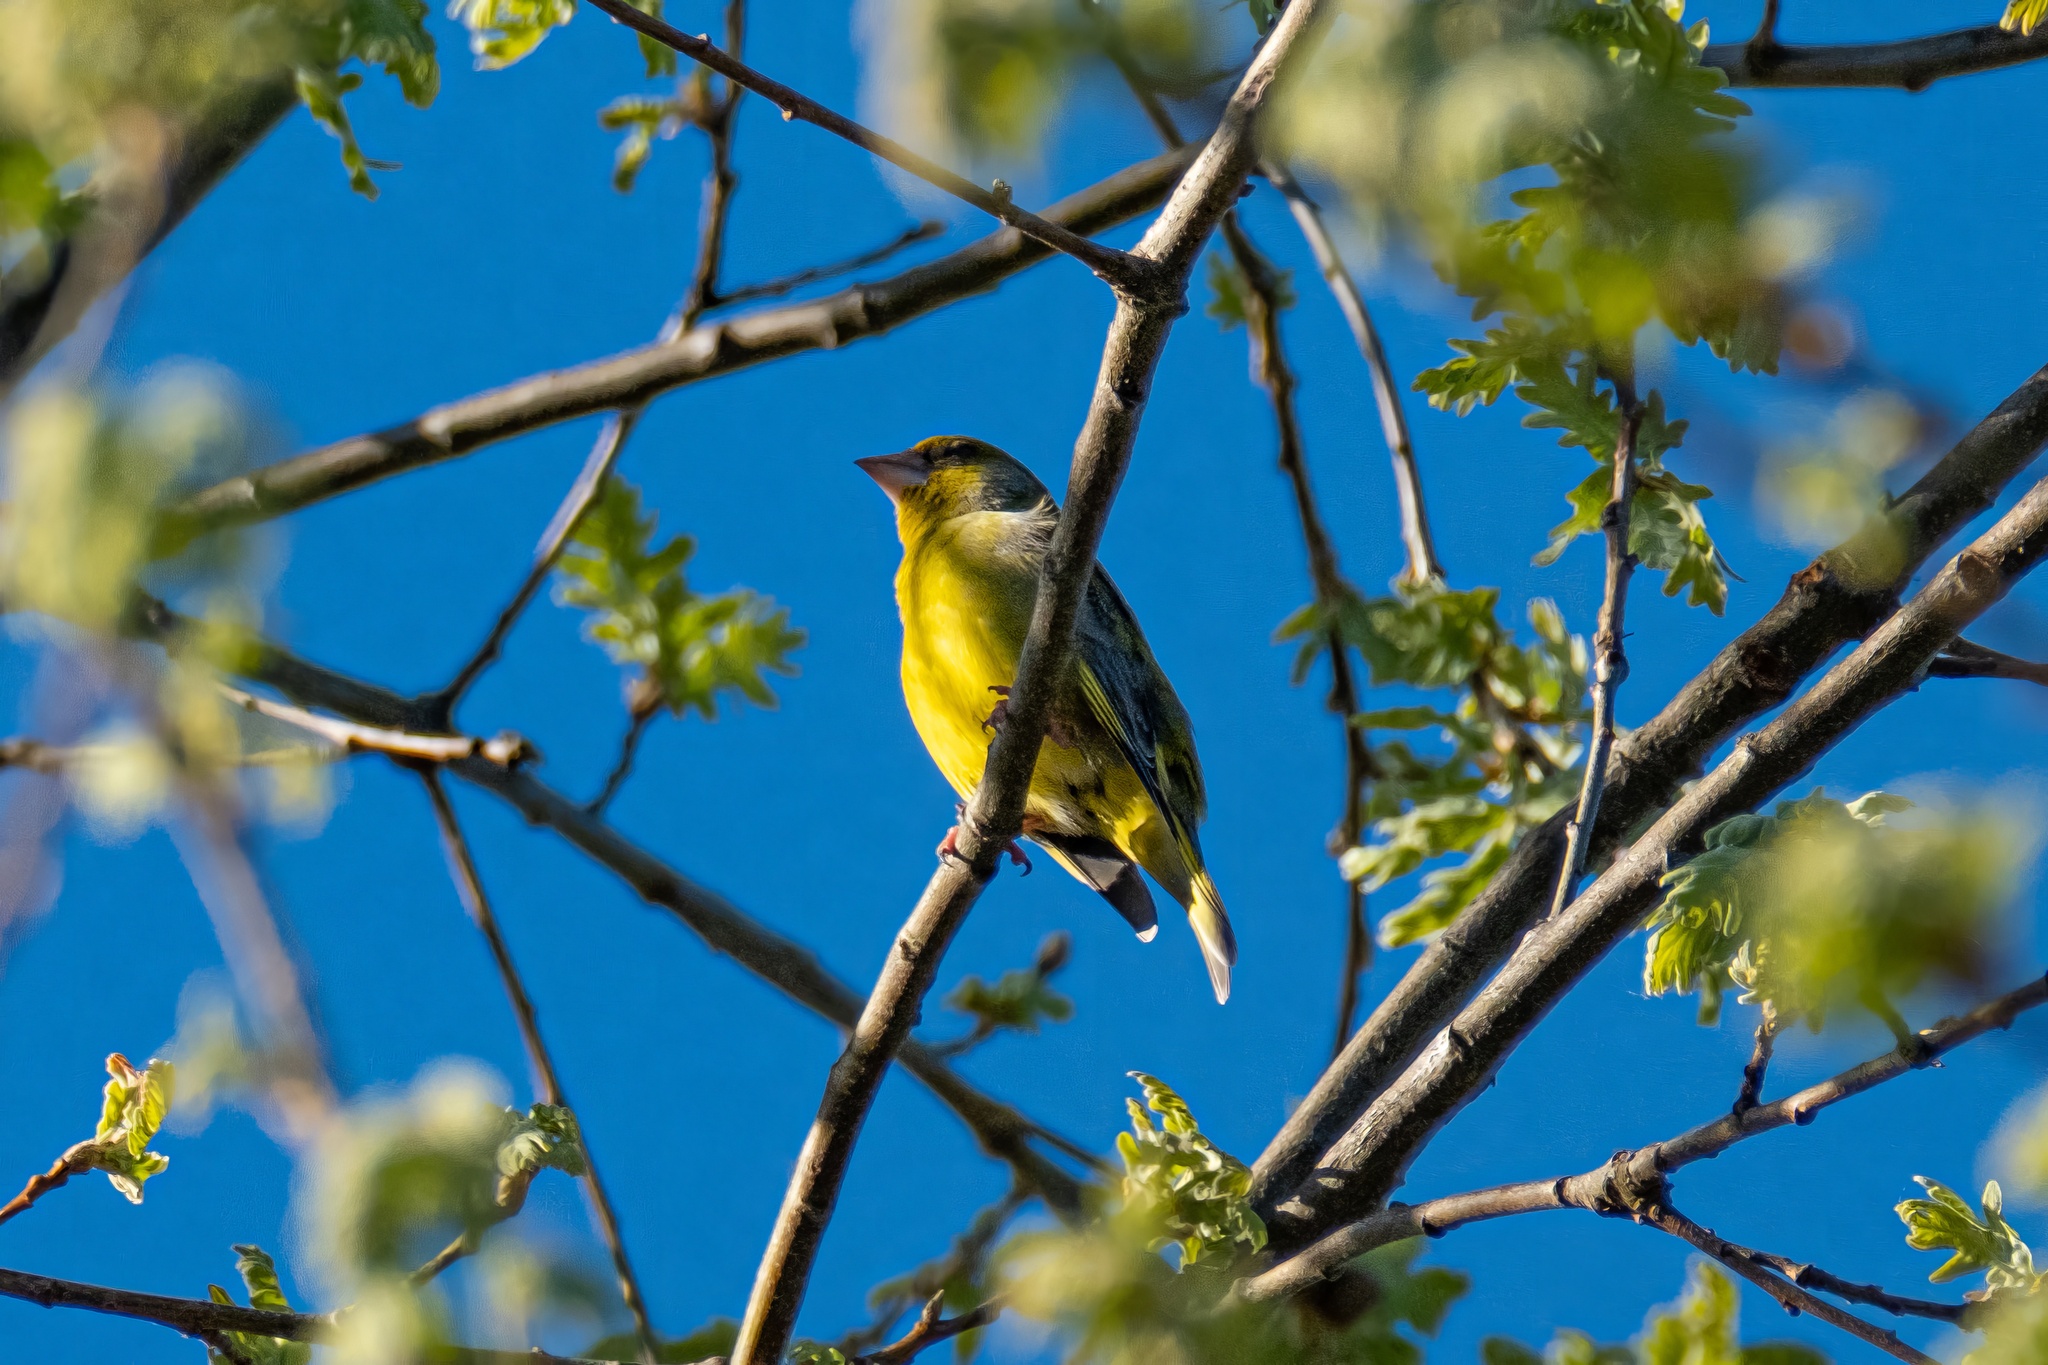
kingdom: Plantae
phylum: Tracheophyta
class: Liliopsida
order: Poales
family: Poaceae
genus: Chloris
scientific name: Chloris chloris
